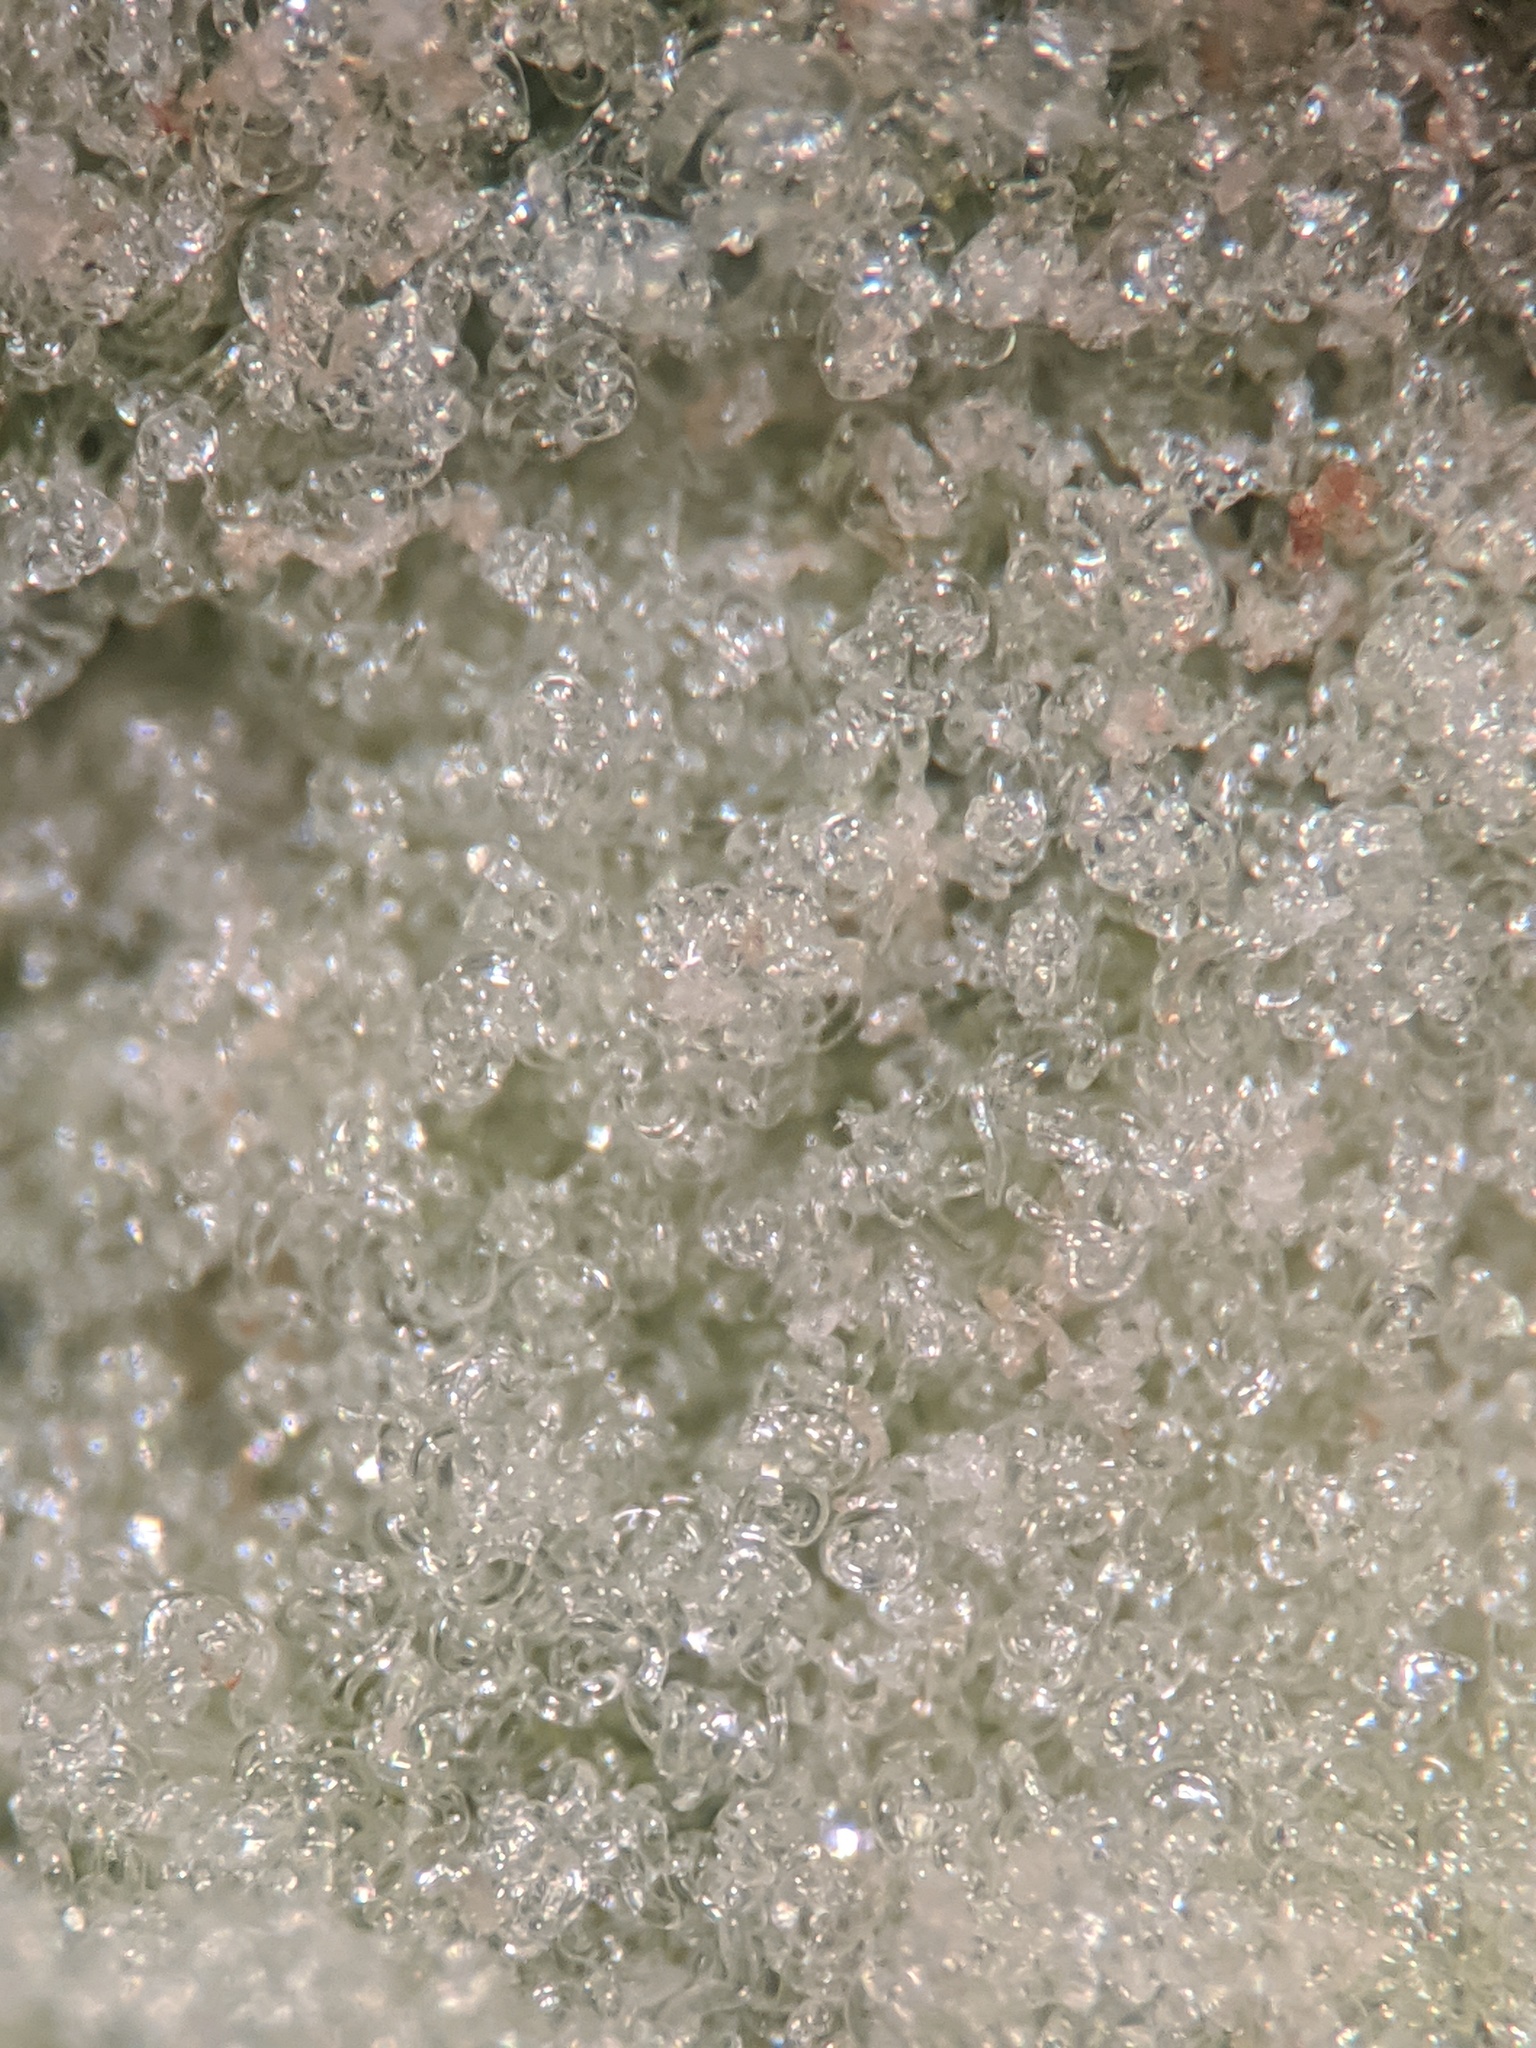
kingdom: Animalia
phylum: Arthropoda
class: Arachnida
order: Trombidiformes
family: Eriophyidae
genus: Aceria
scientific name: Aceria
